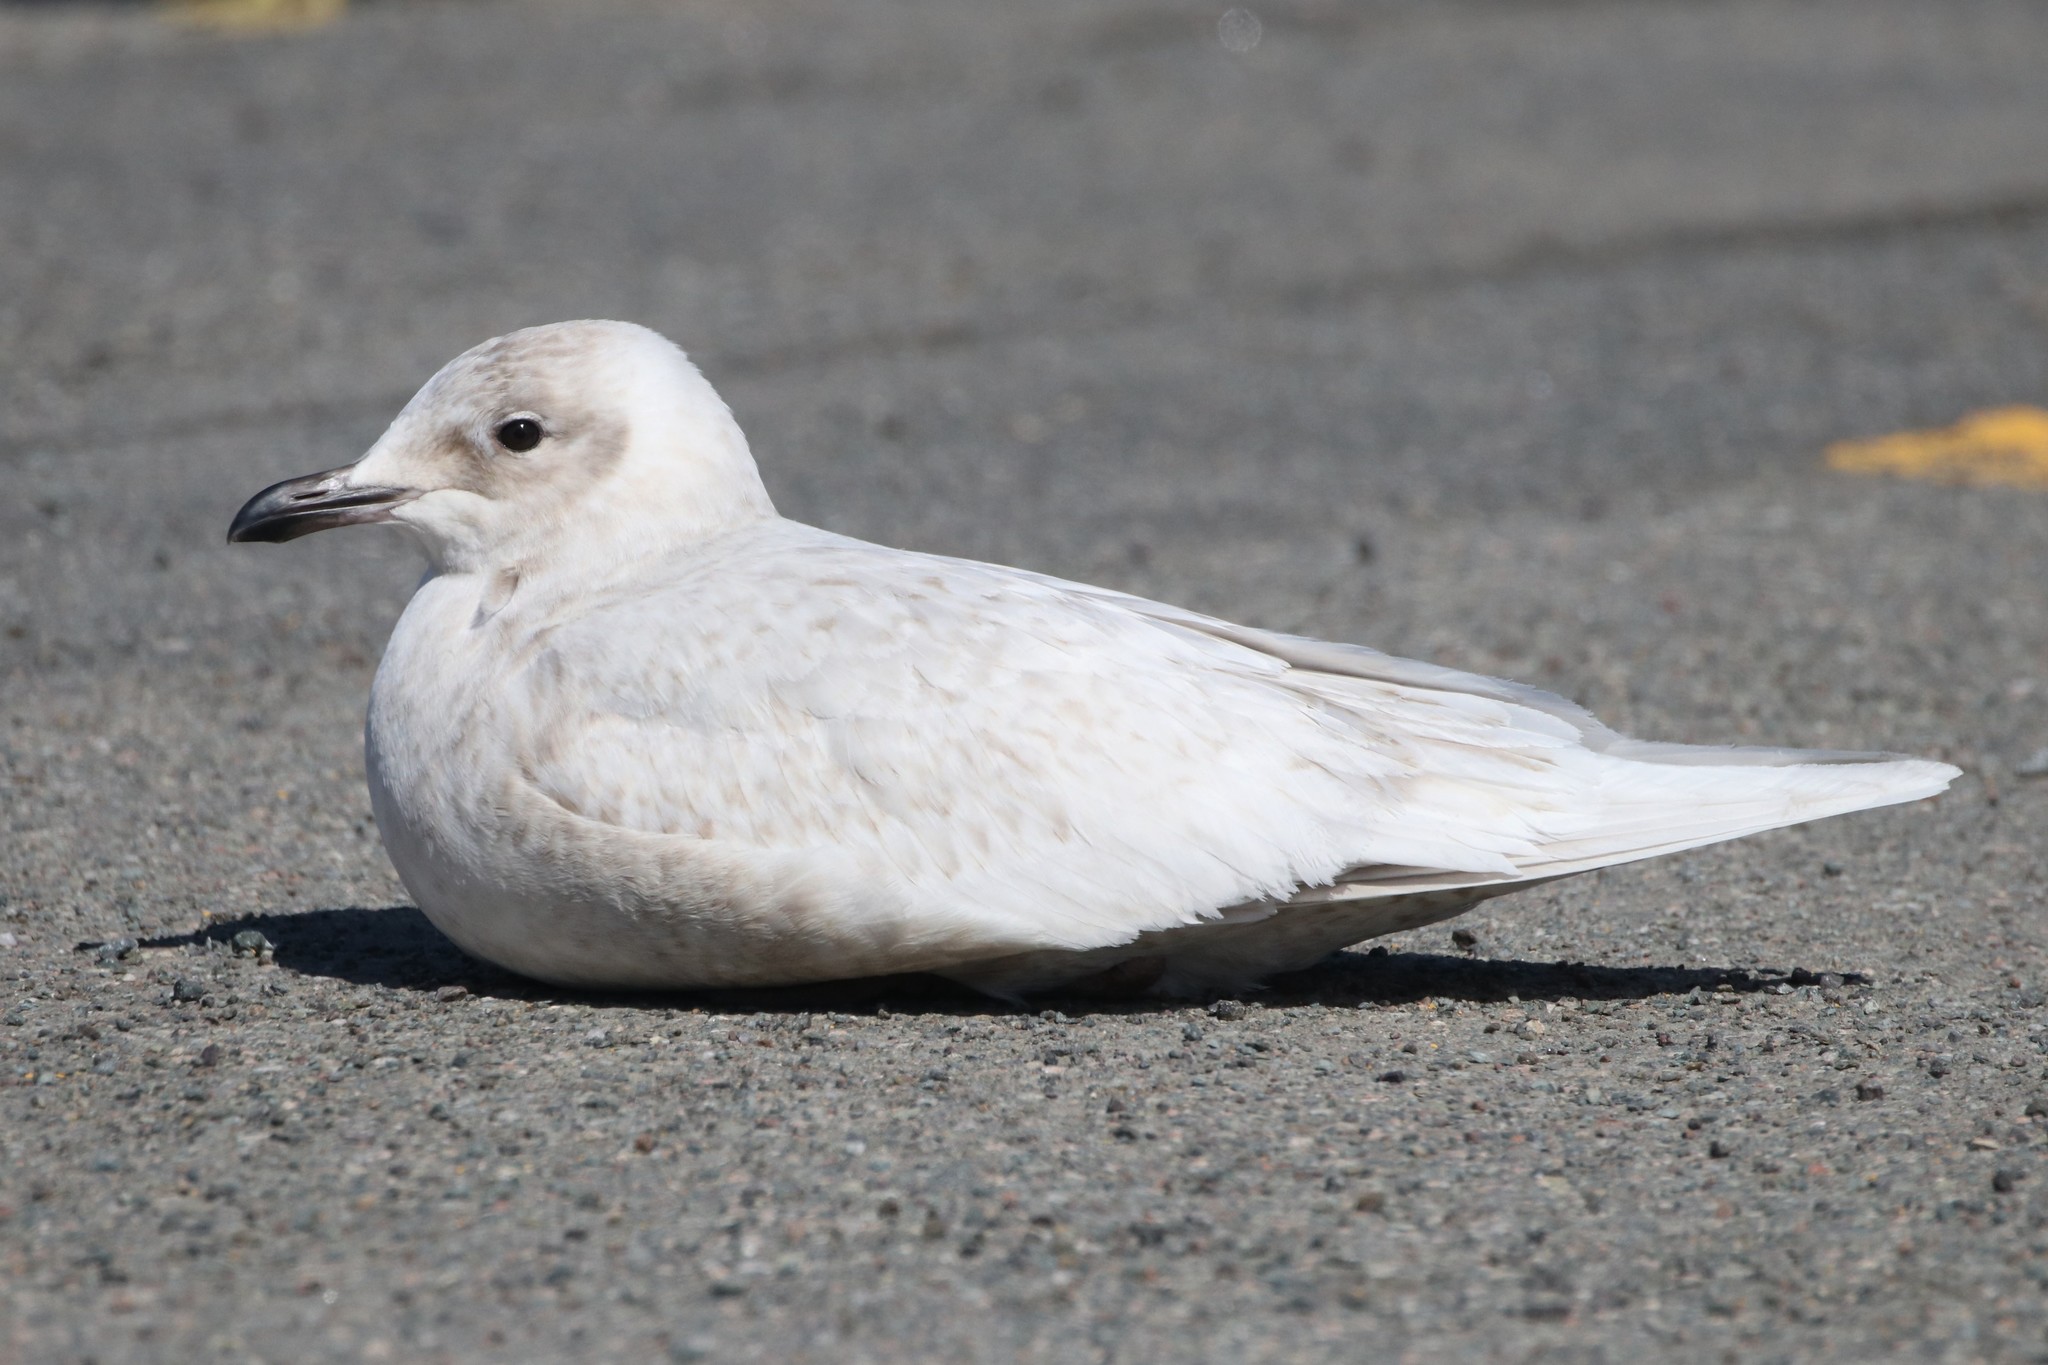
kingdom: Animalia
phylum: Chordata
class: Aves
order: Charadriiformes
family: Laridae
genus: Larus
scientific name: Larus glaucoides
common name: Iceland gull
